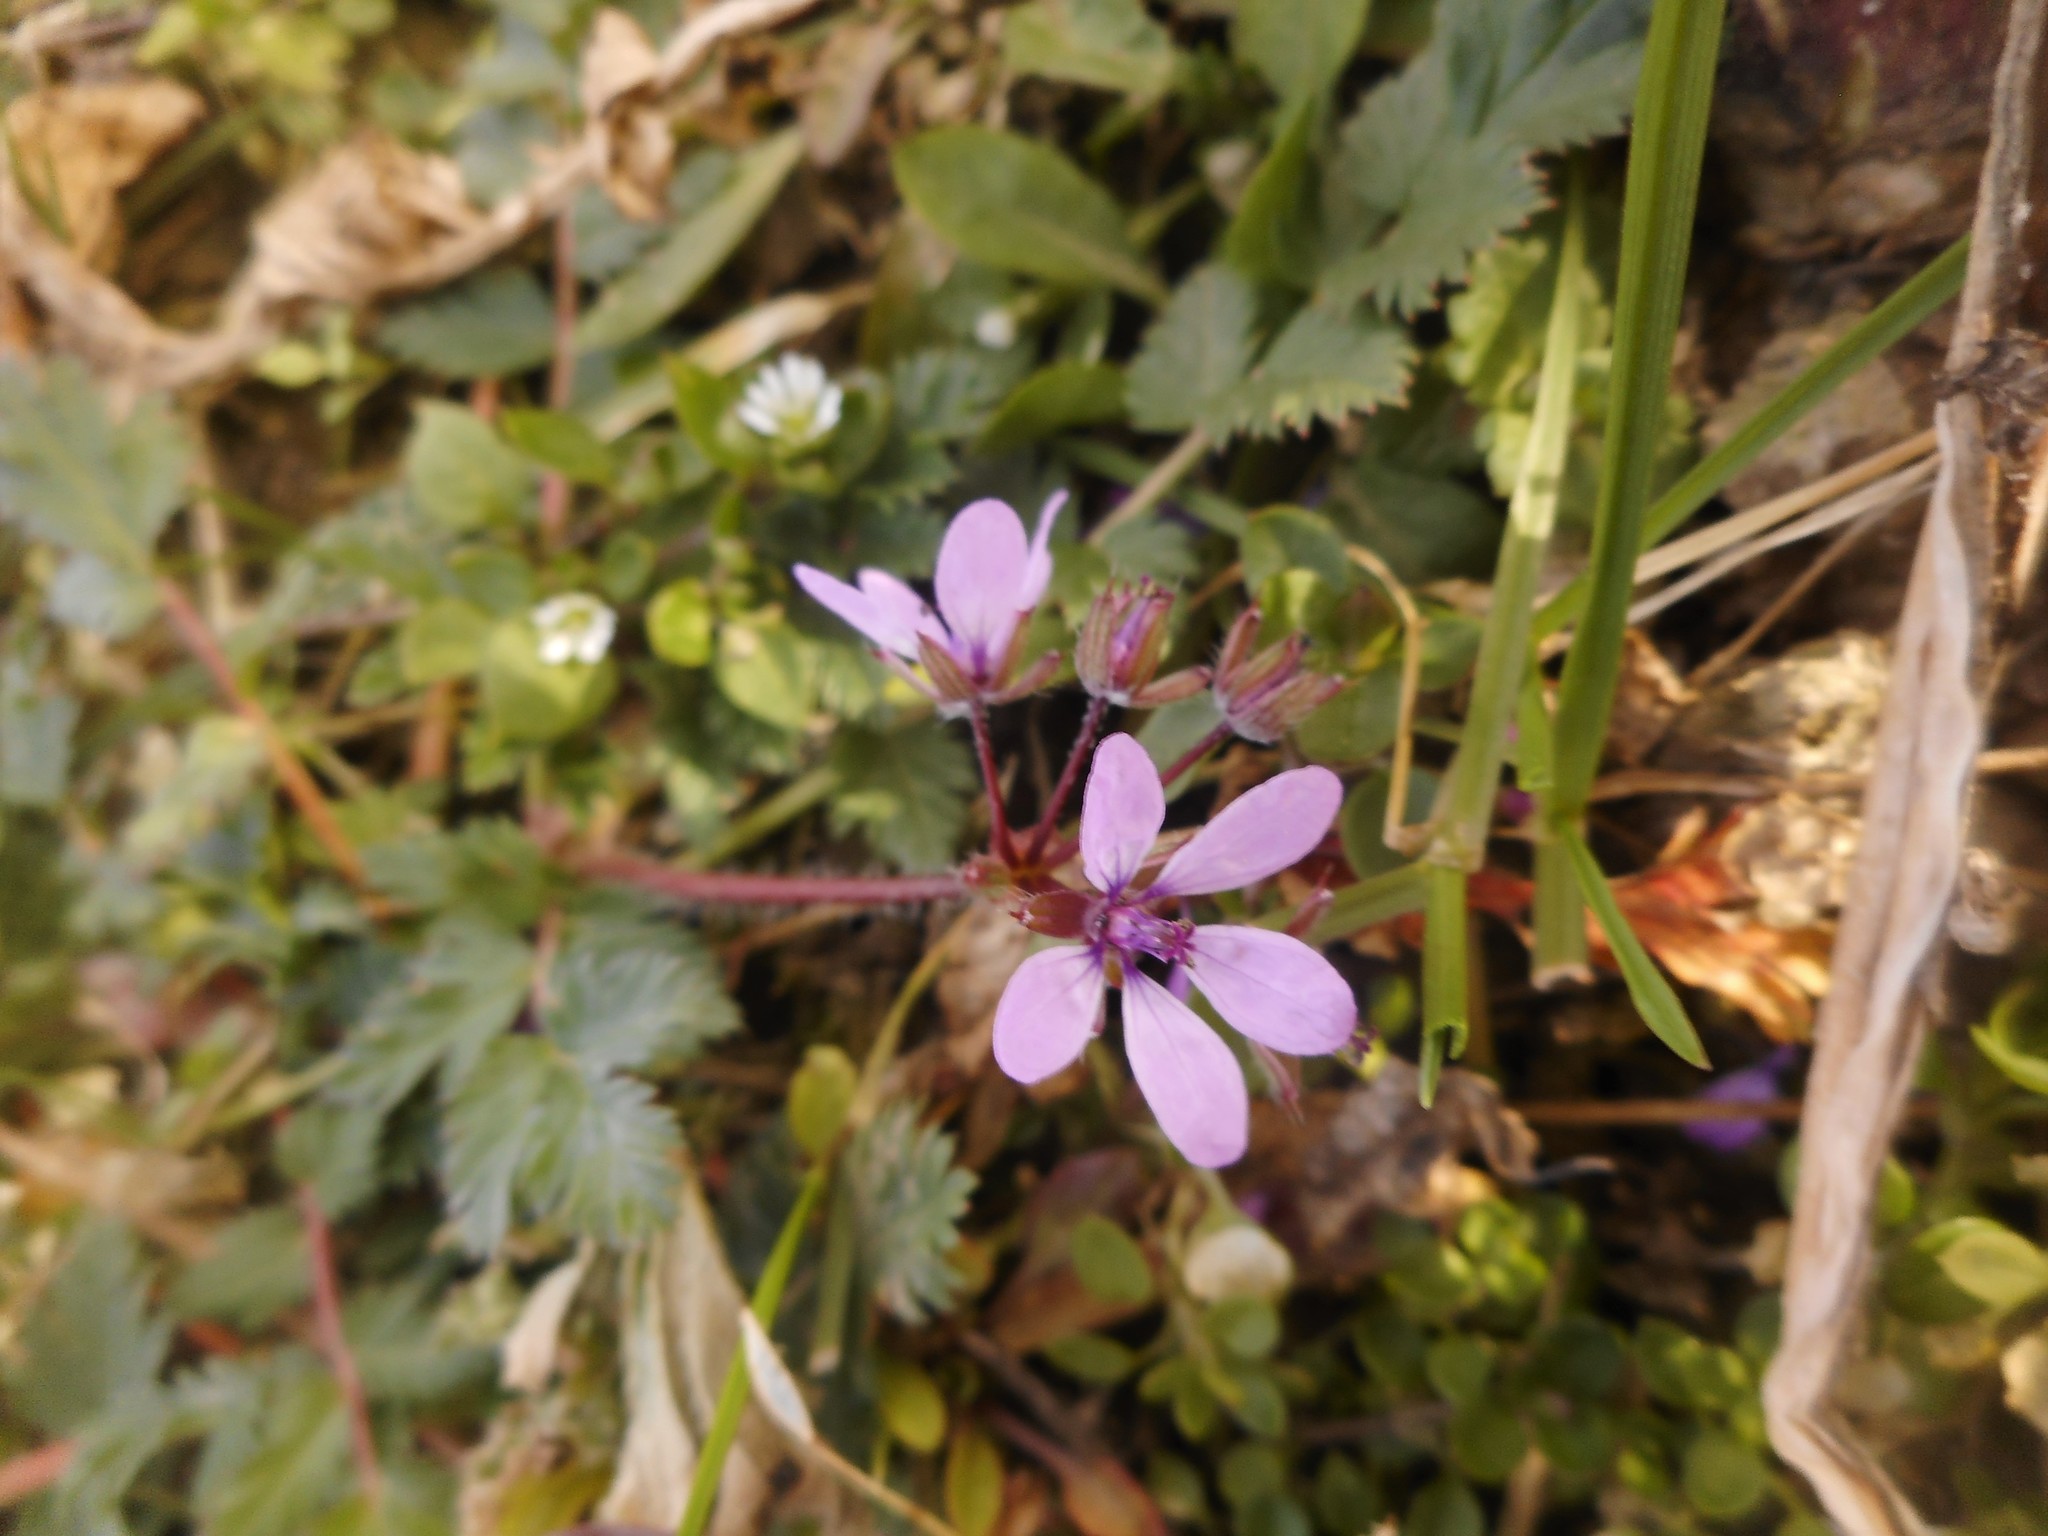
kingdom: Plantae
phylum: Tracheophyta
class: Magnoliopsida
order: Geraniales
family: Geraniaceae
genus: Erodium
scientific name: Erodium cicutarium
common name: Common stork's-bill
